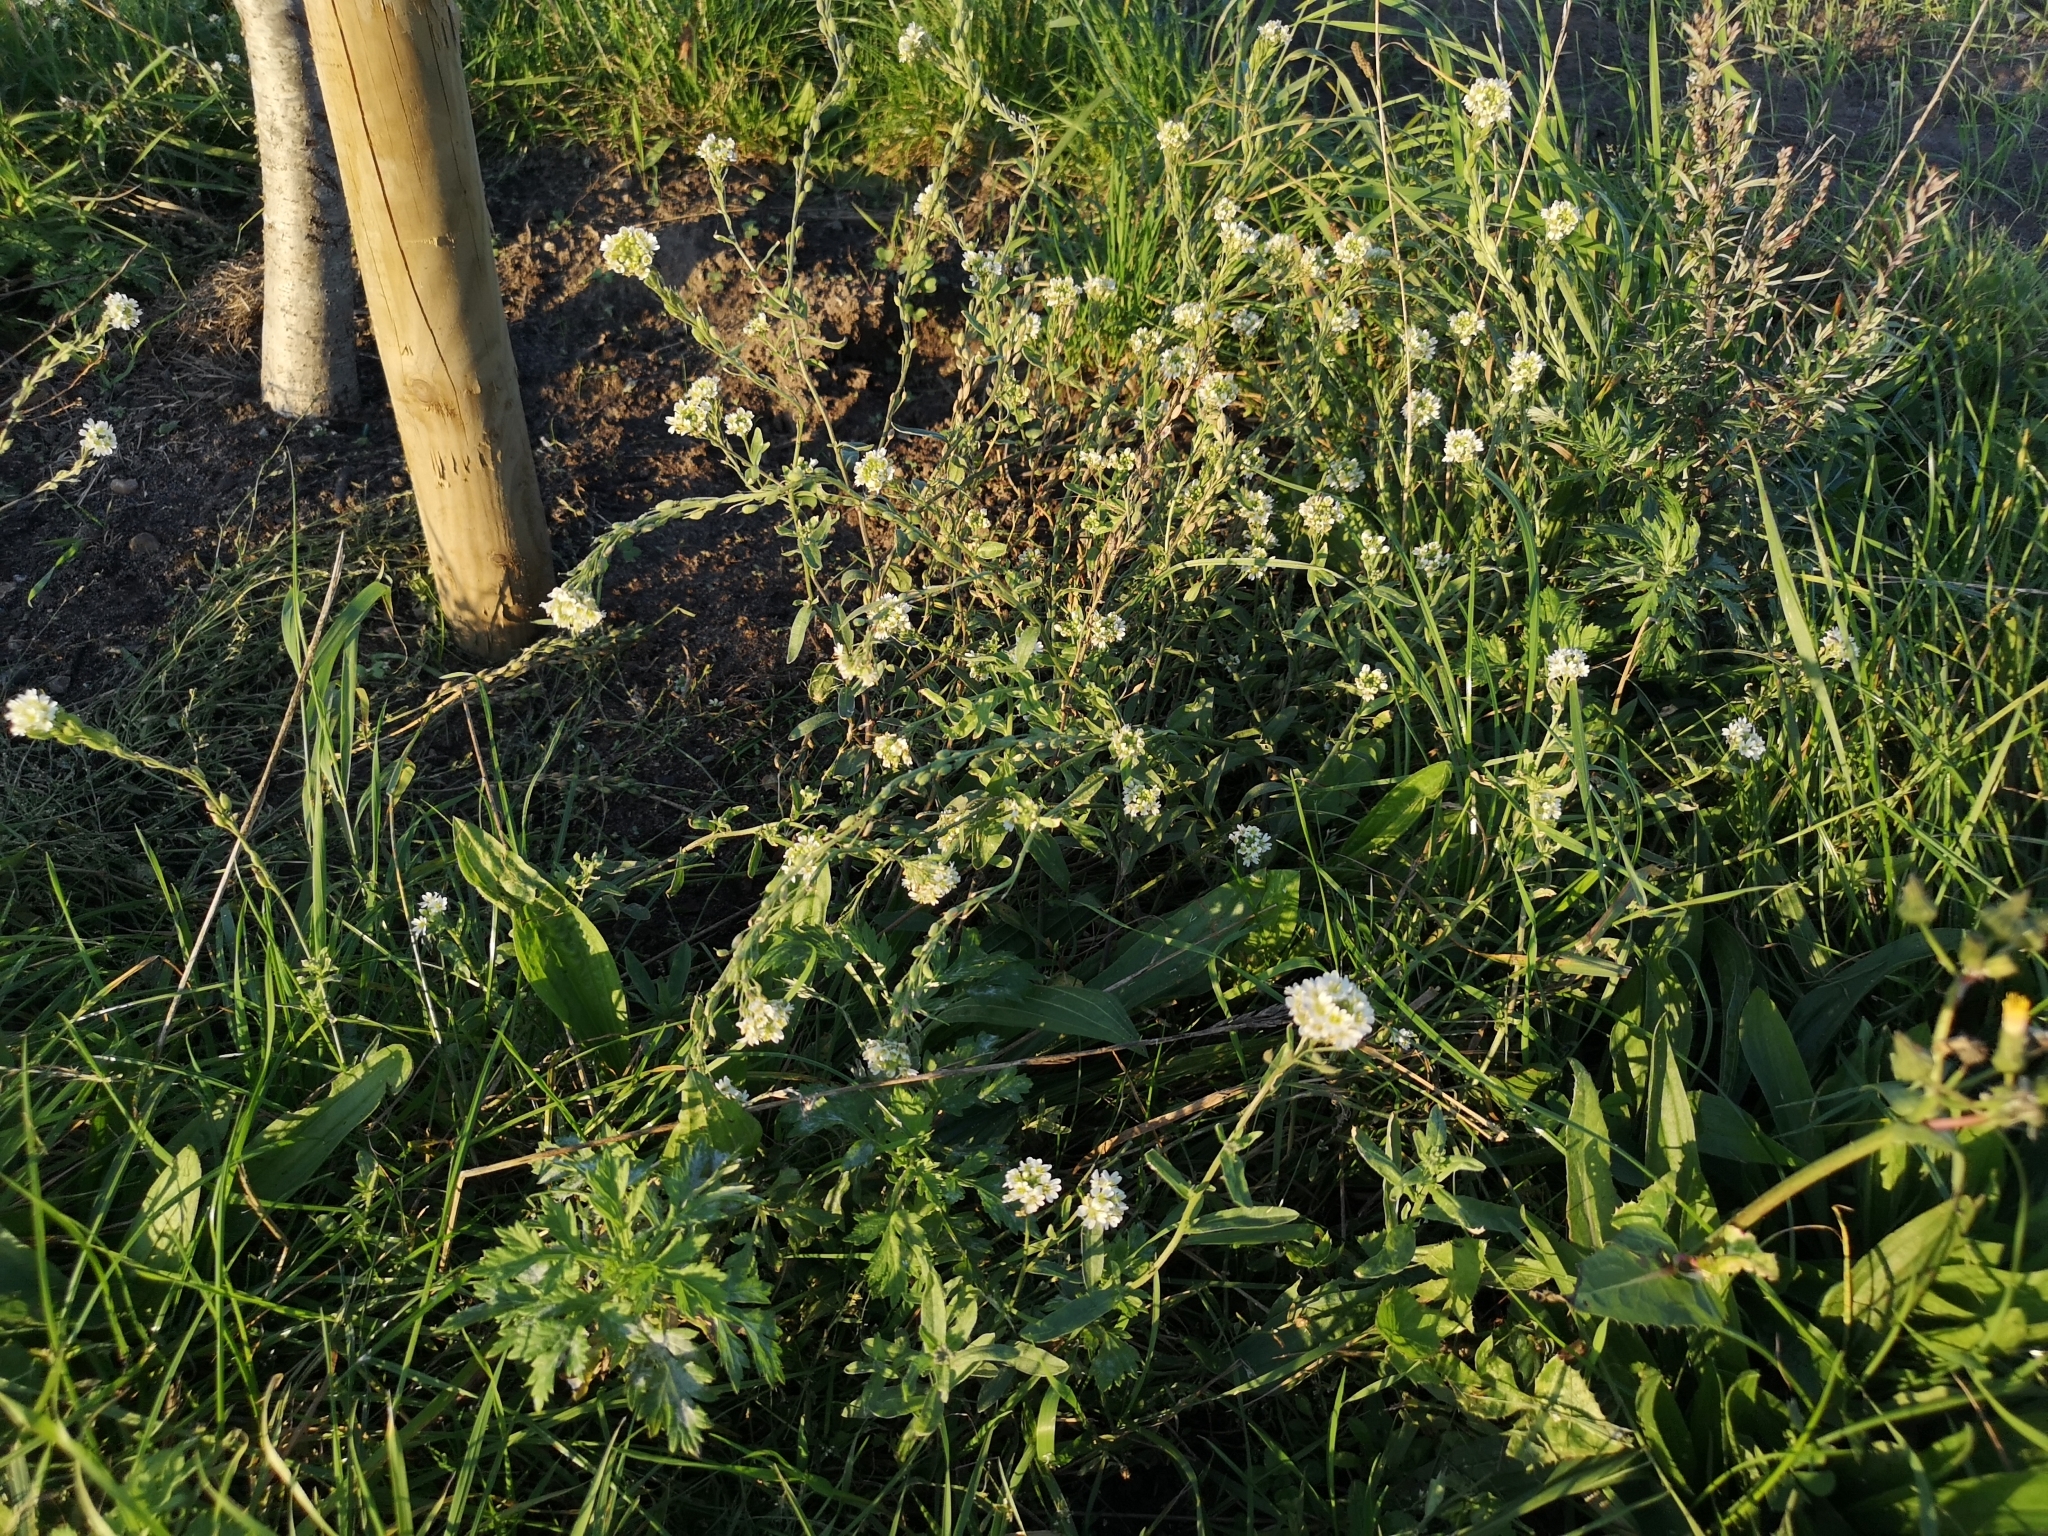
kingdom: Plantae
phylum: Tracheophyta
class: Magnoliopsida
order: Brassicales
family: Brassicaceae
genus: Berteroa
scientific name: Berteroa incana
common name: Hoary alison
